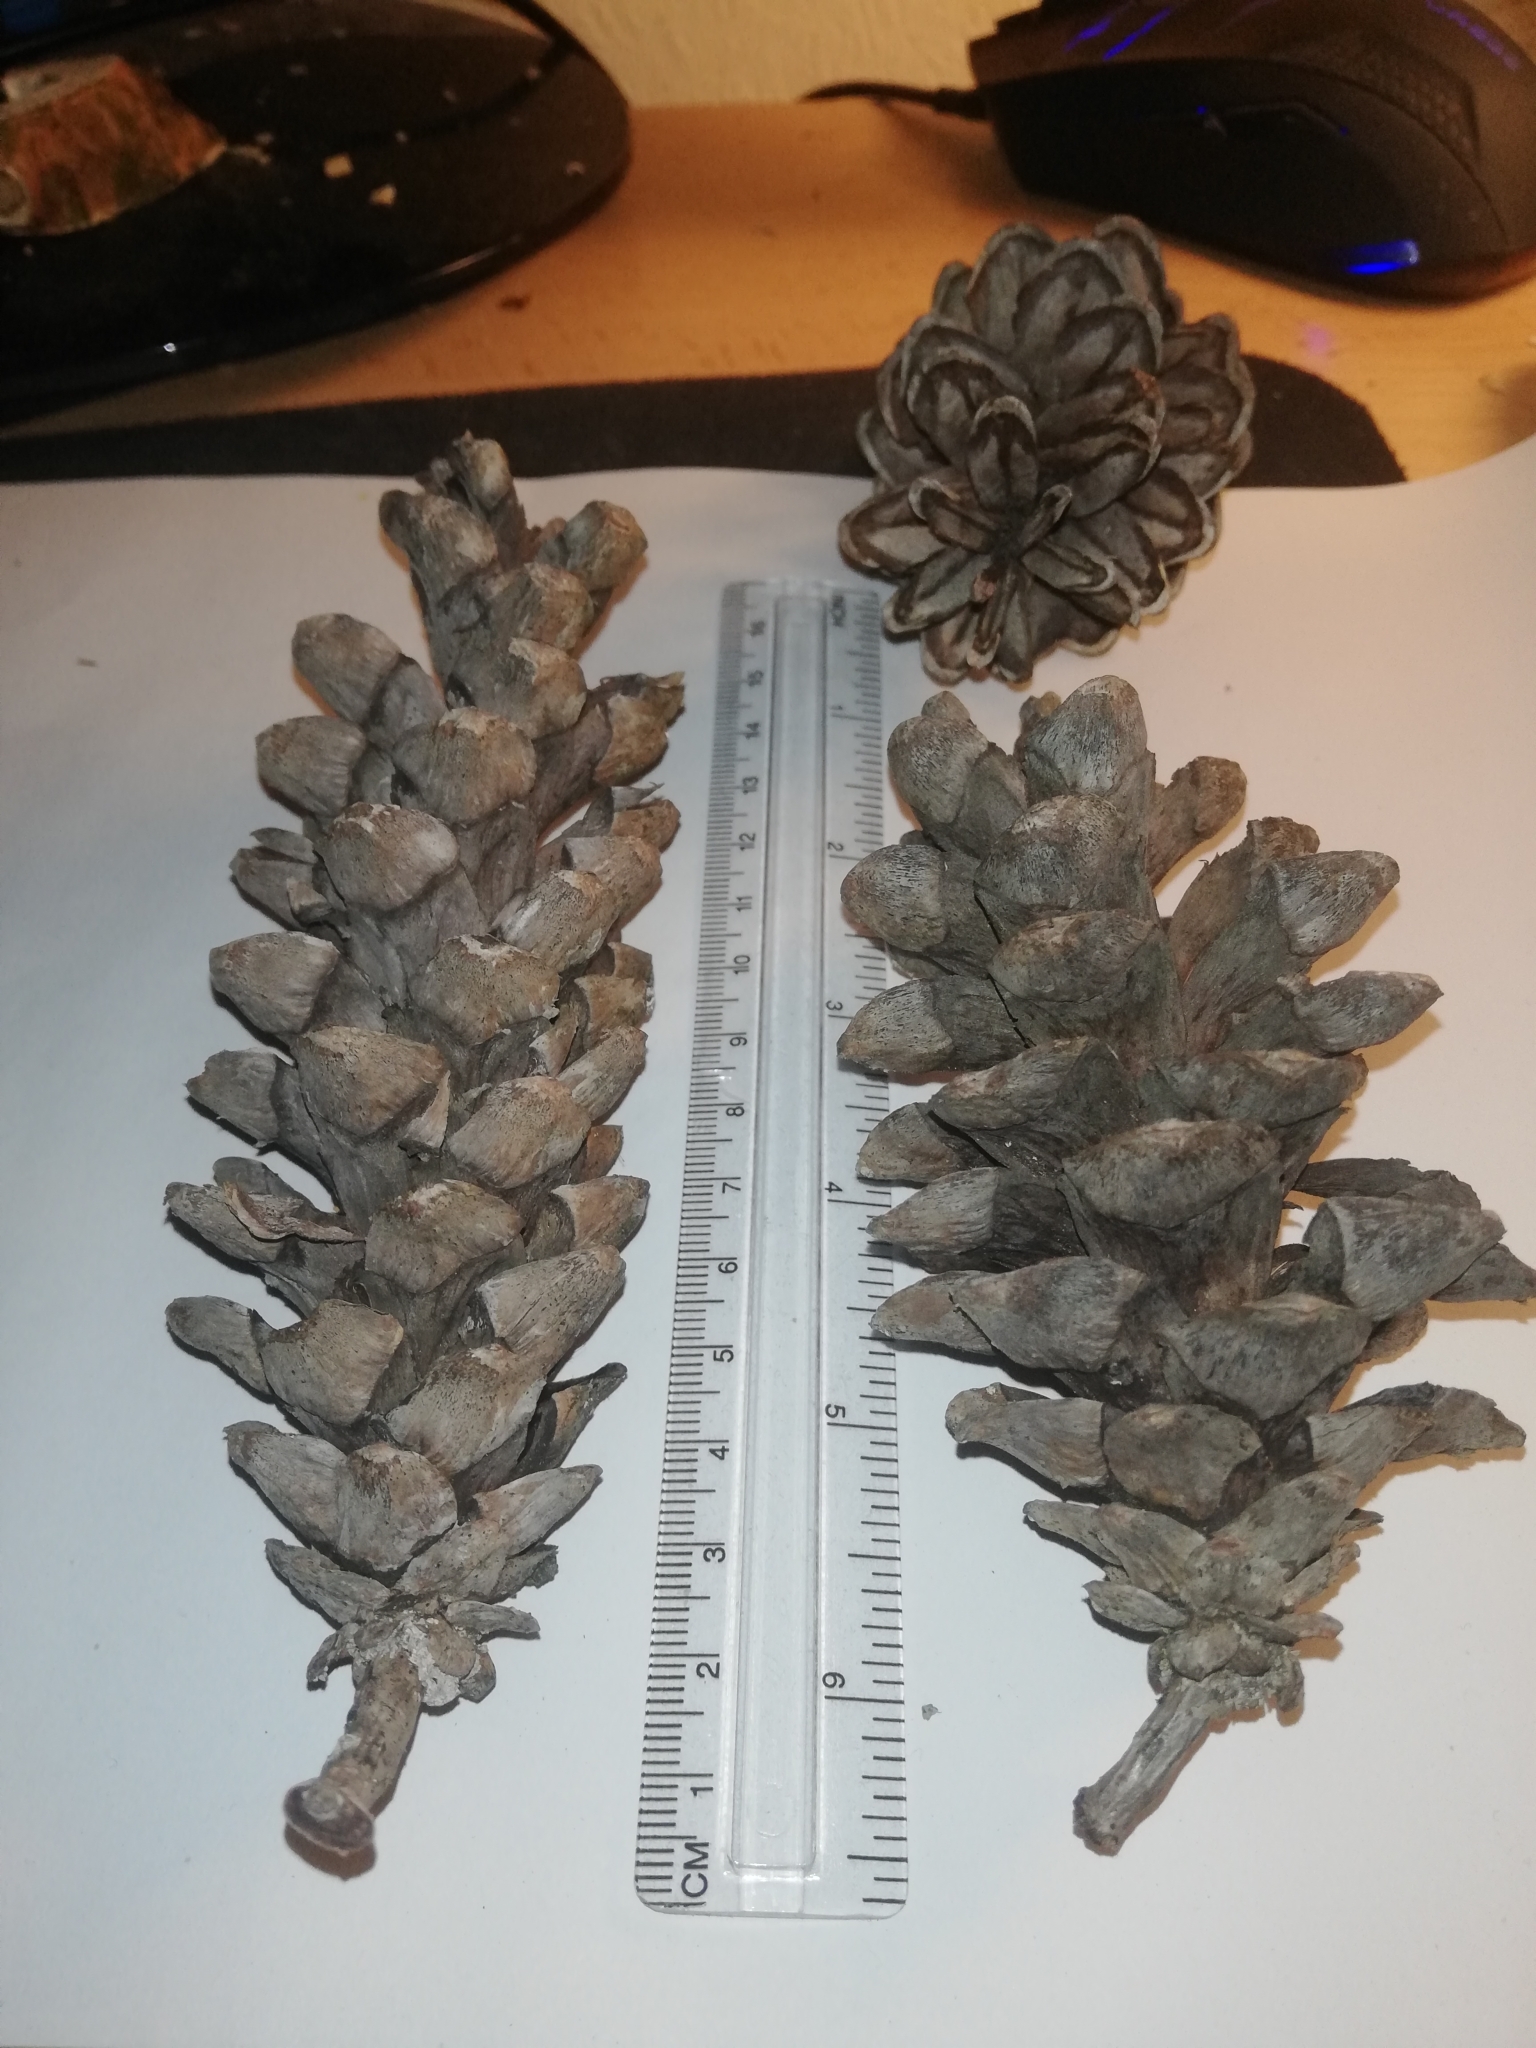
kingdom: Plantae
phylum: Tracheophyta
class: Pinopsida
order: Pinales
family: Pinaceae
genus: Pinus
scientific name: Pinus strobus
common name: Weymouth pine
